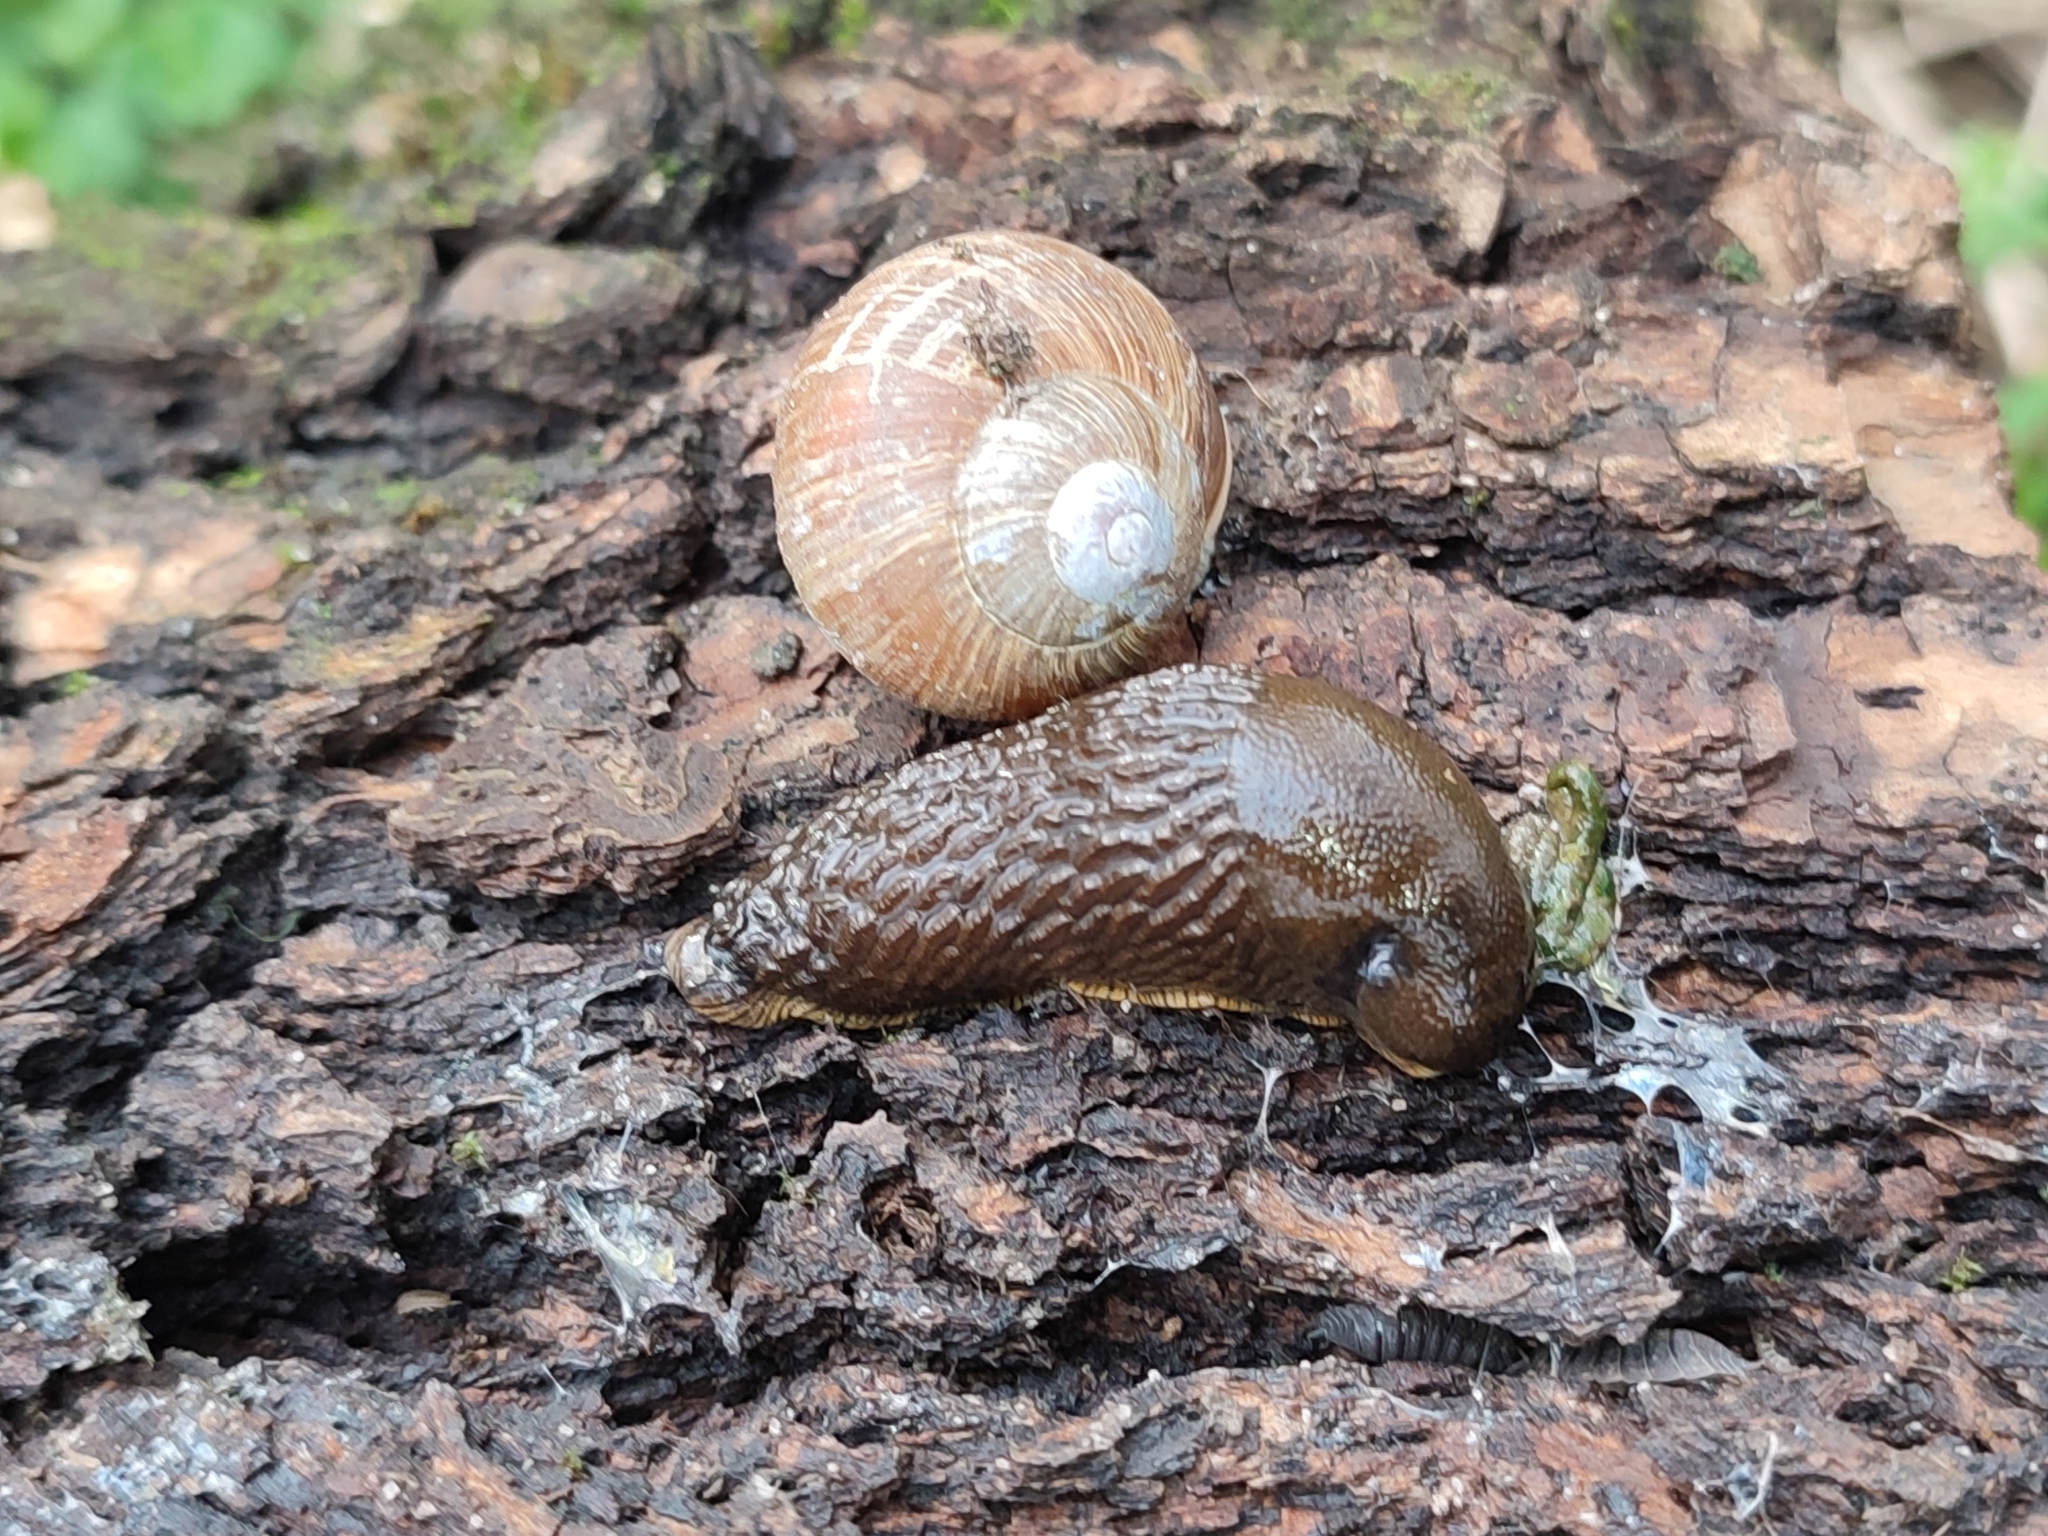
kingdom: Animalia
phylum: Mollusca
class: Gastropoda
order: Stylommatophora
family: Arionidae
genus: Arion
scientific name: Arion vulgaris
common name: Lusitanian slug
